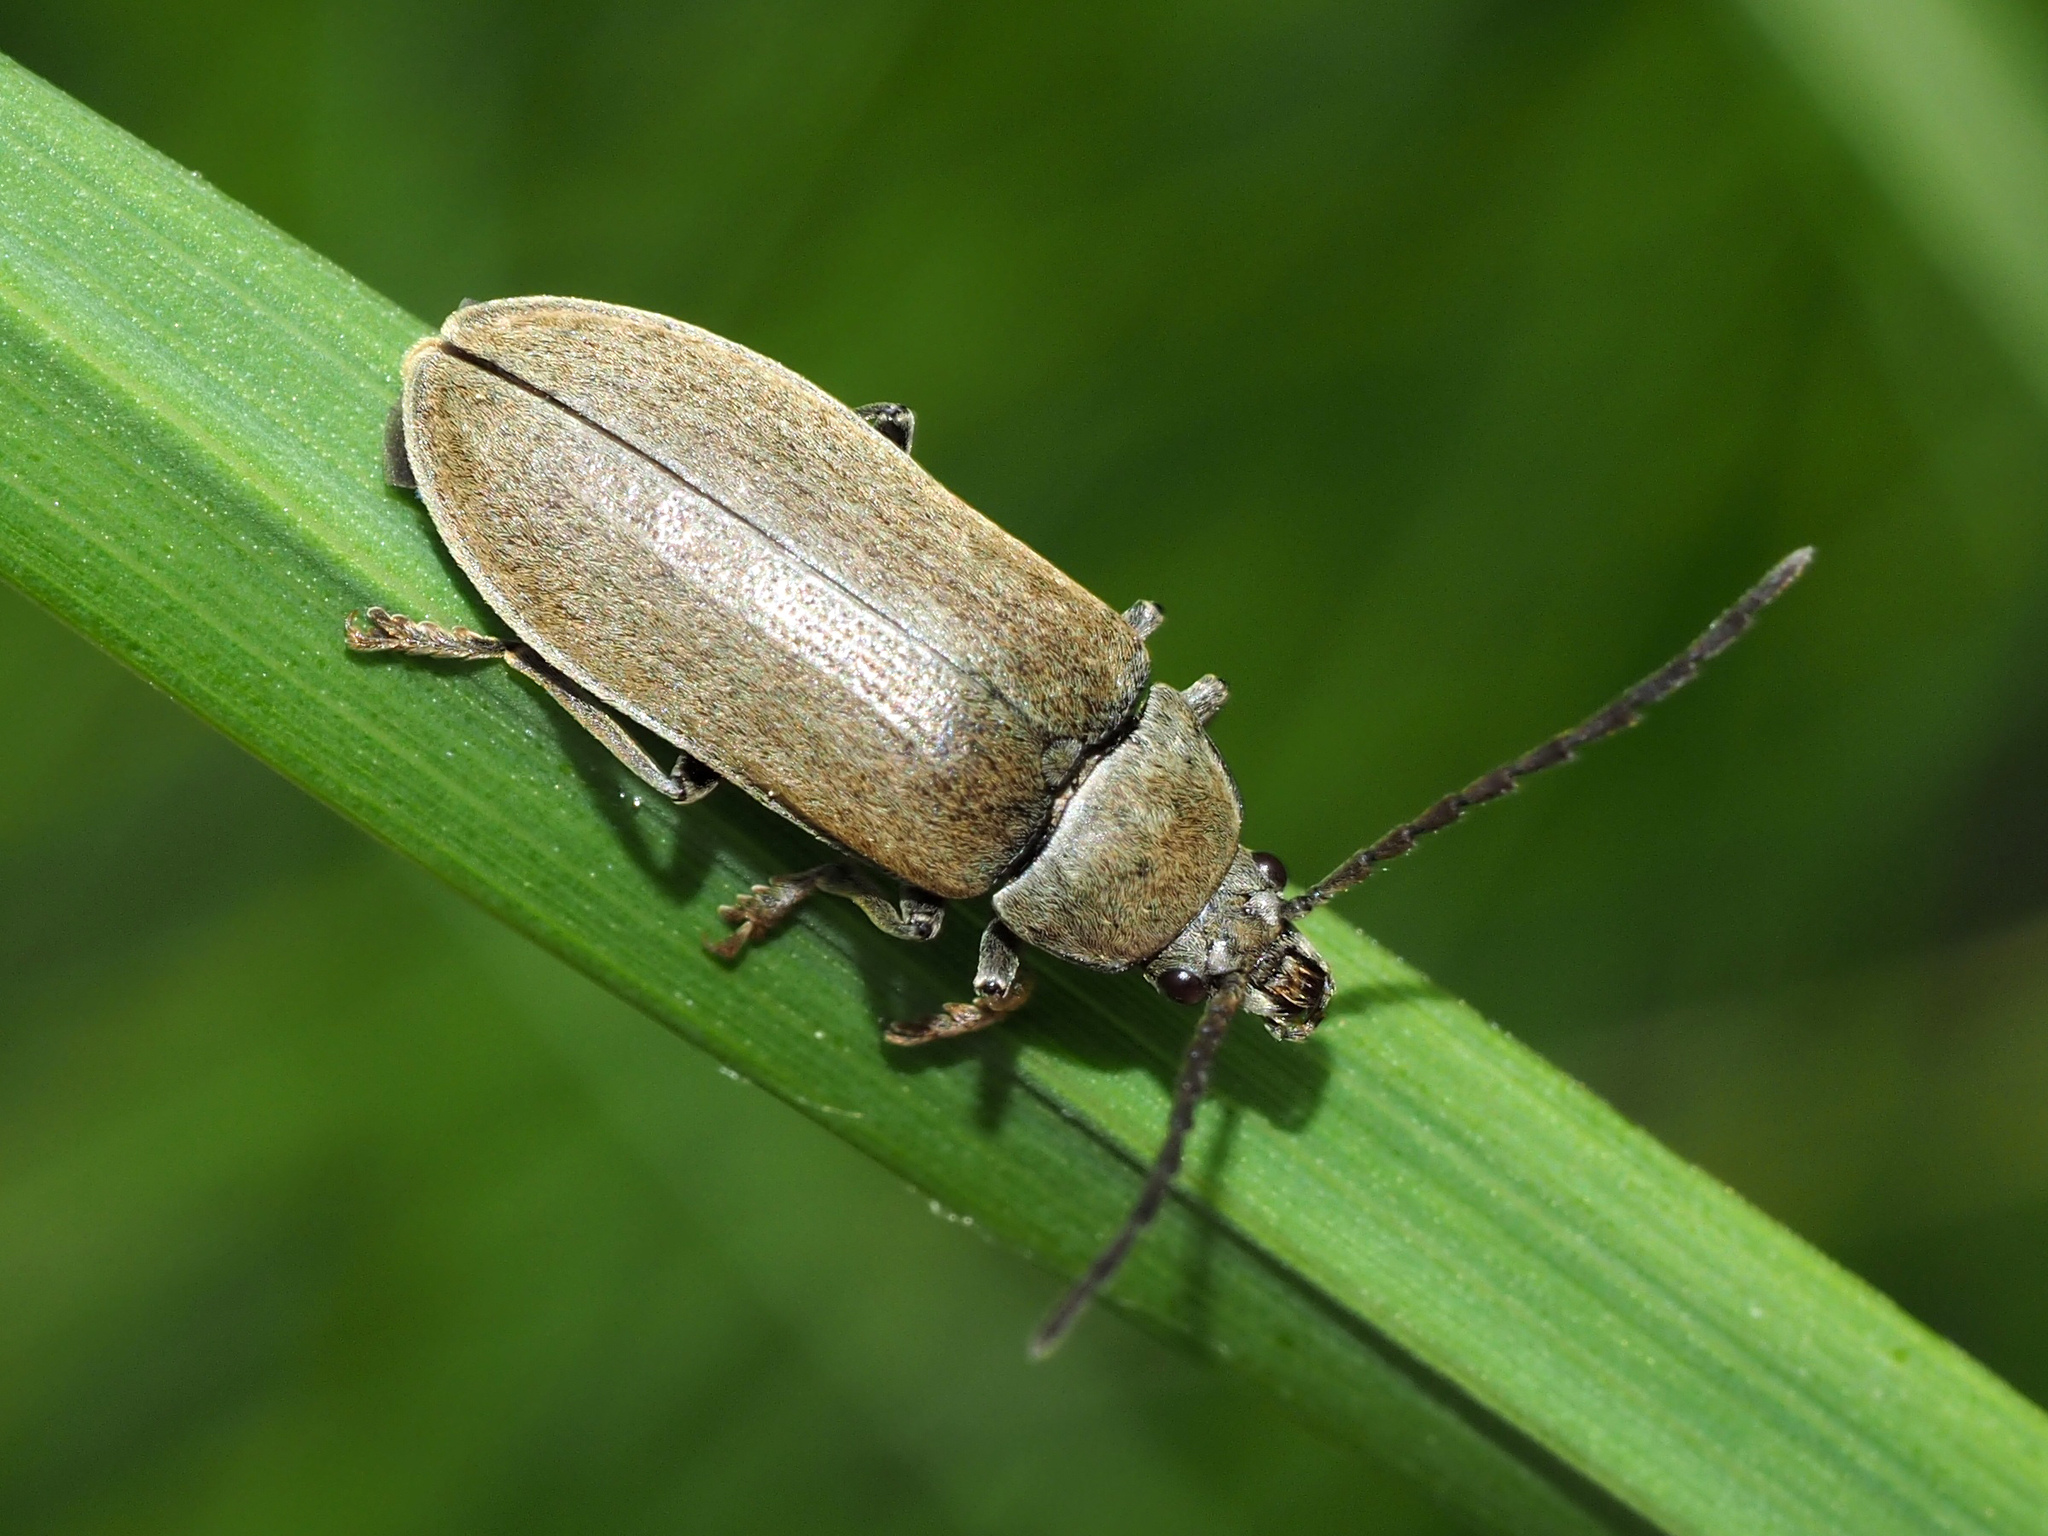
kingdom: Animalia
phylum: Arthropoda
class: Insecta
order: Coleoptera
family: Dascillidae
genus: Dascillus
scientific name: Dascillus cervinus
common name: Orchid beetle
